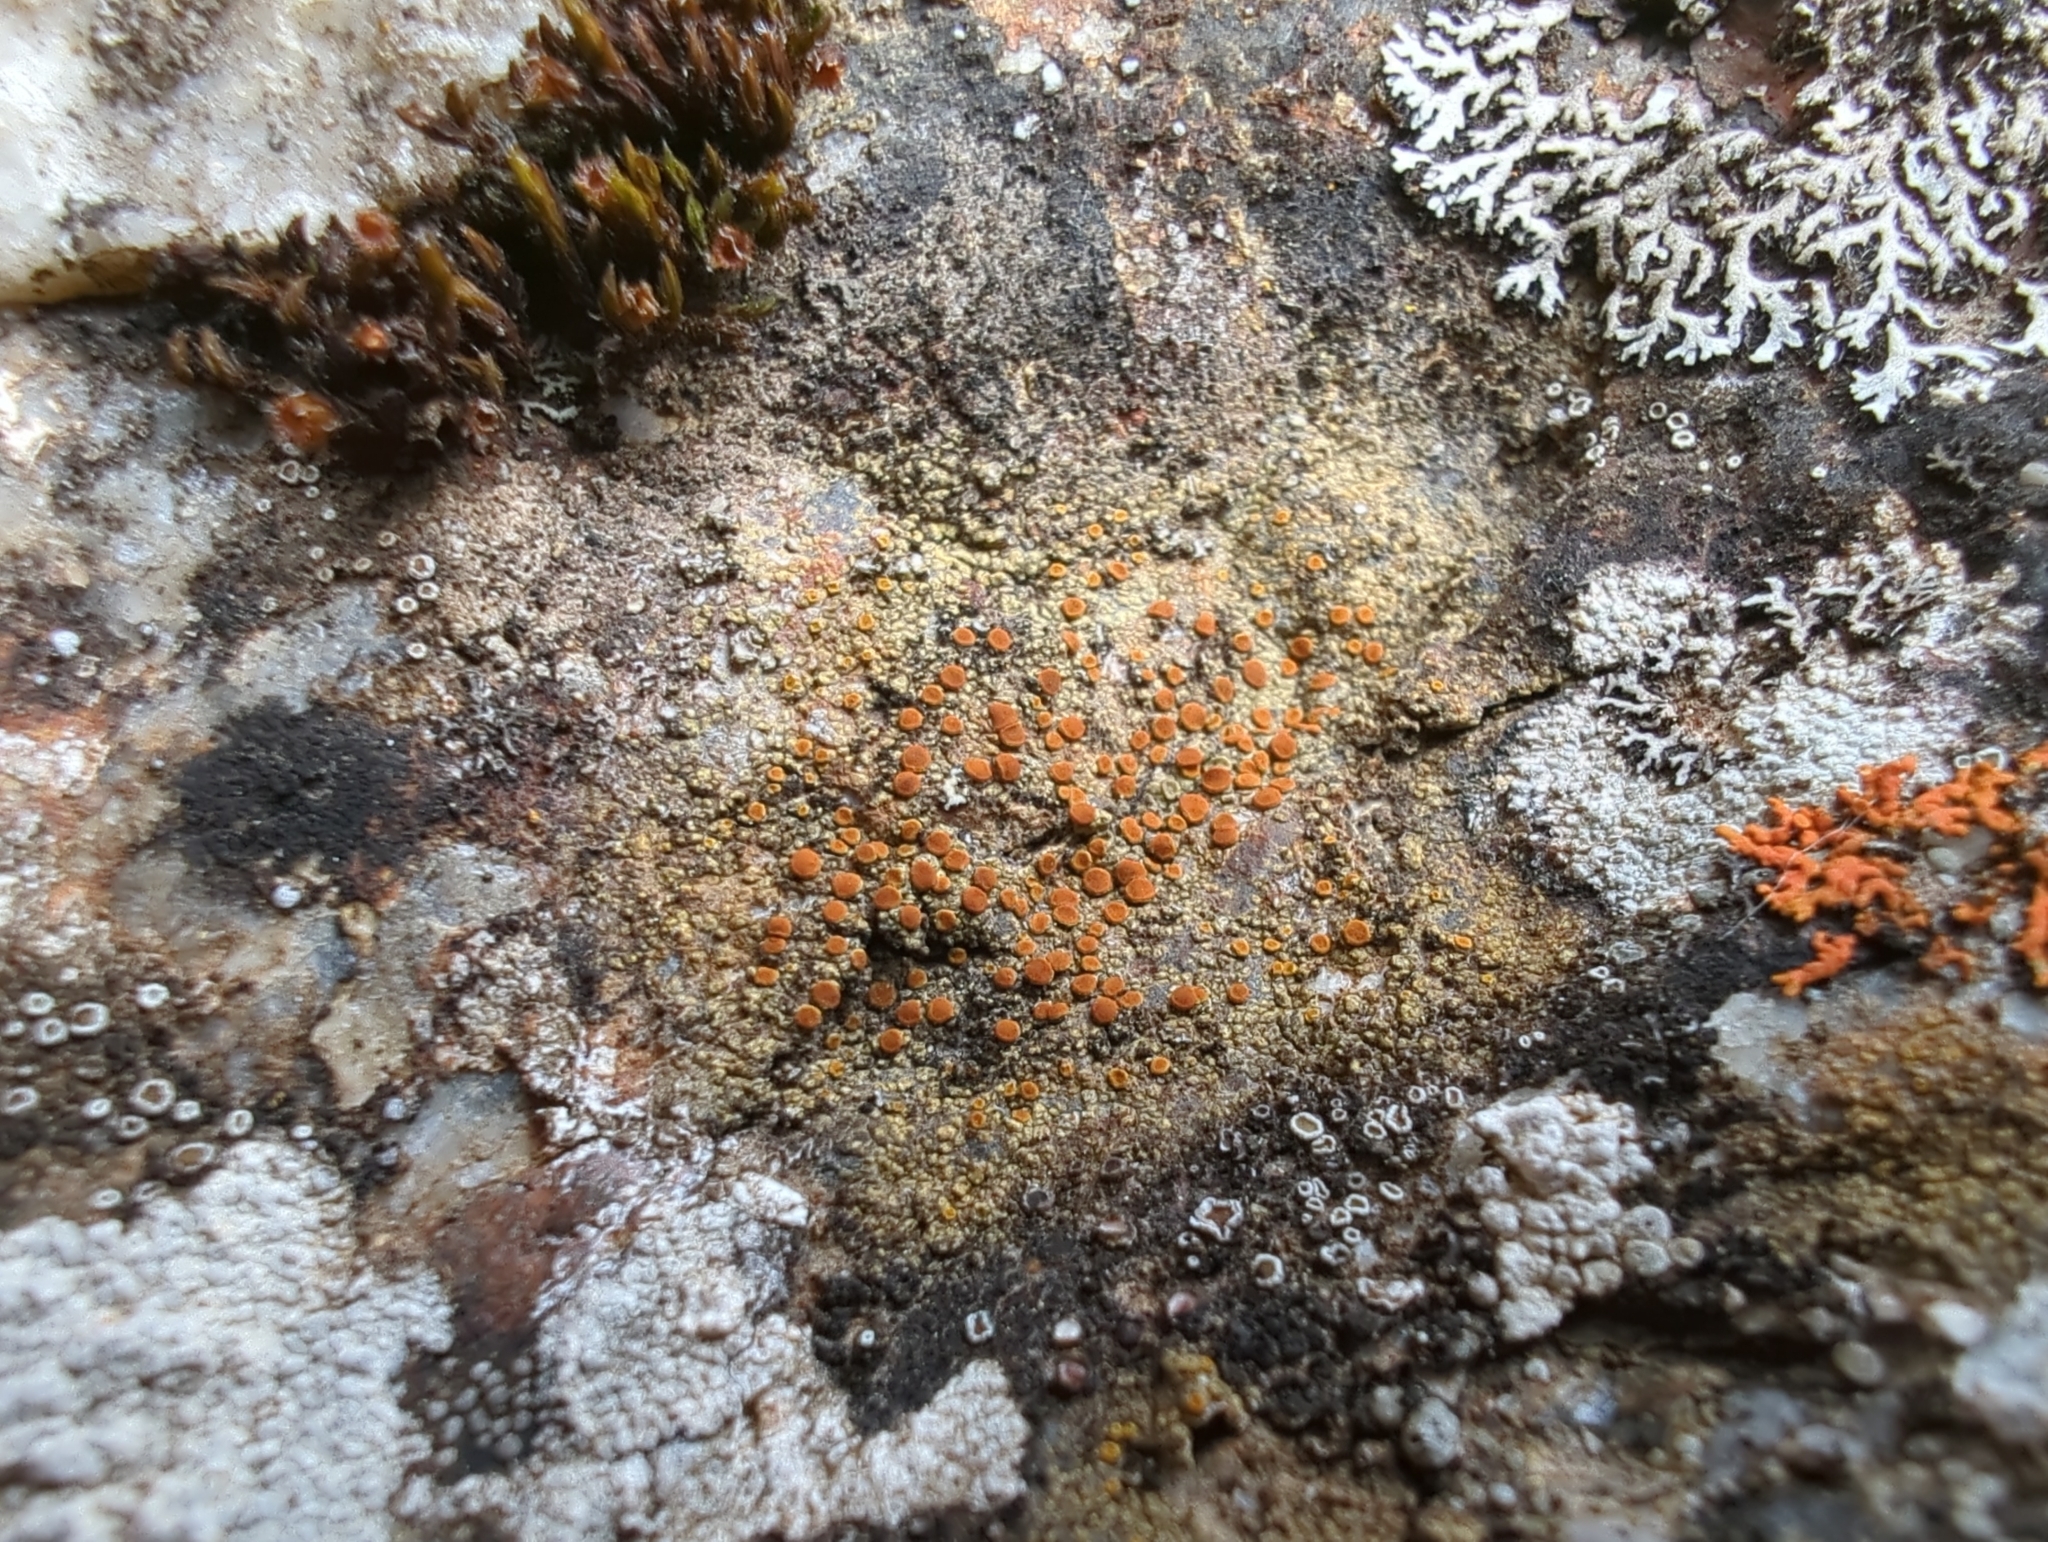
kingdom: Fungi
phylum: Ascomycota
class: Lecanoromycetes
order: Teloschistales
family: Teloschistaceae
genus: Gyalolechia
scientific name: Gyalolechia flavovirescens
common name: Sulphur firedot
